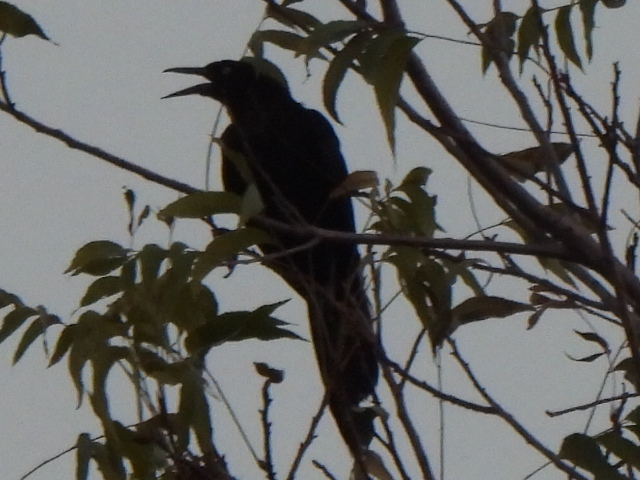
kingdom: Animalia
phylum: Chordata
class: Aves
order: Passeriformes
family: Icteridae
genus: Quiscalus
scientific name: Quiscalus mexicanus
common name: Great-tailed grackle
